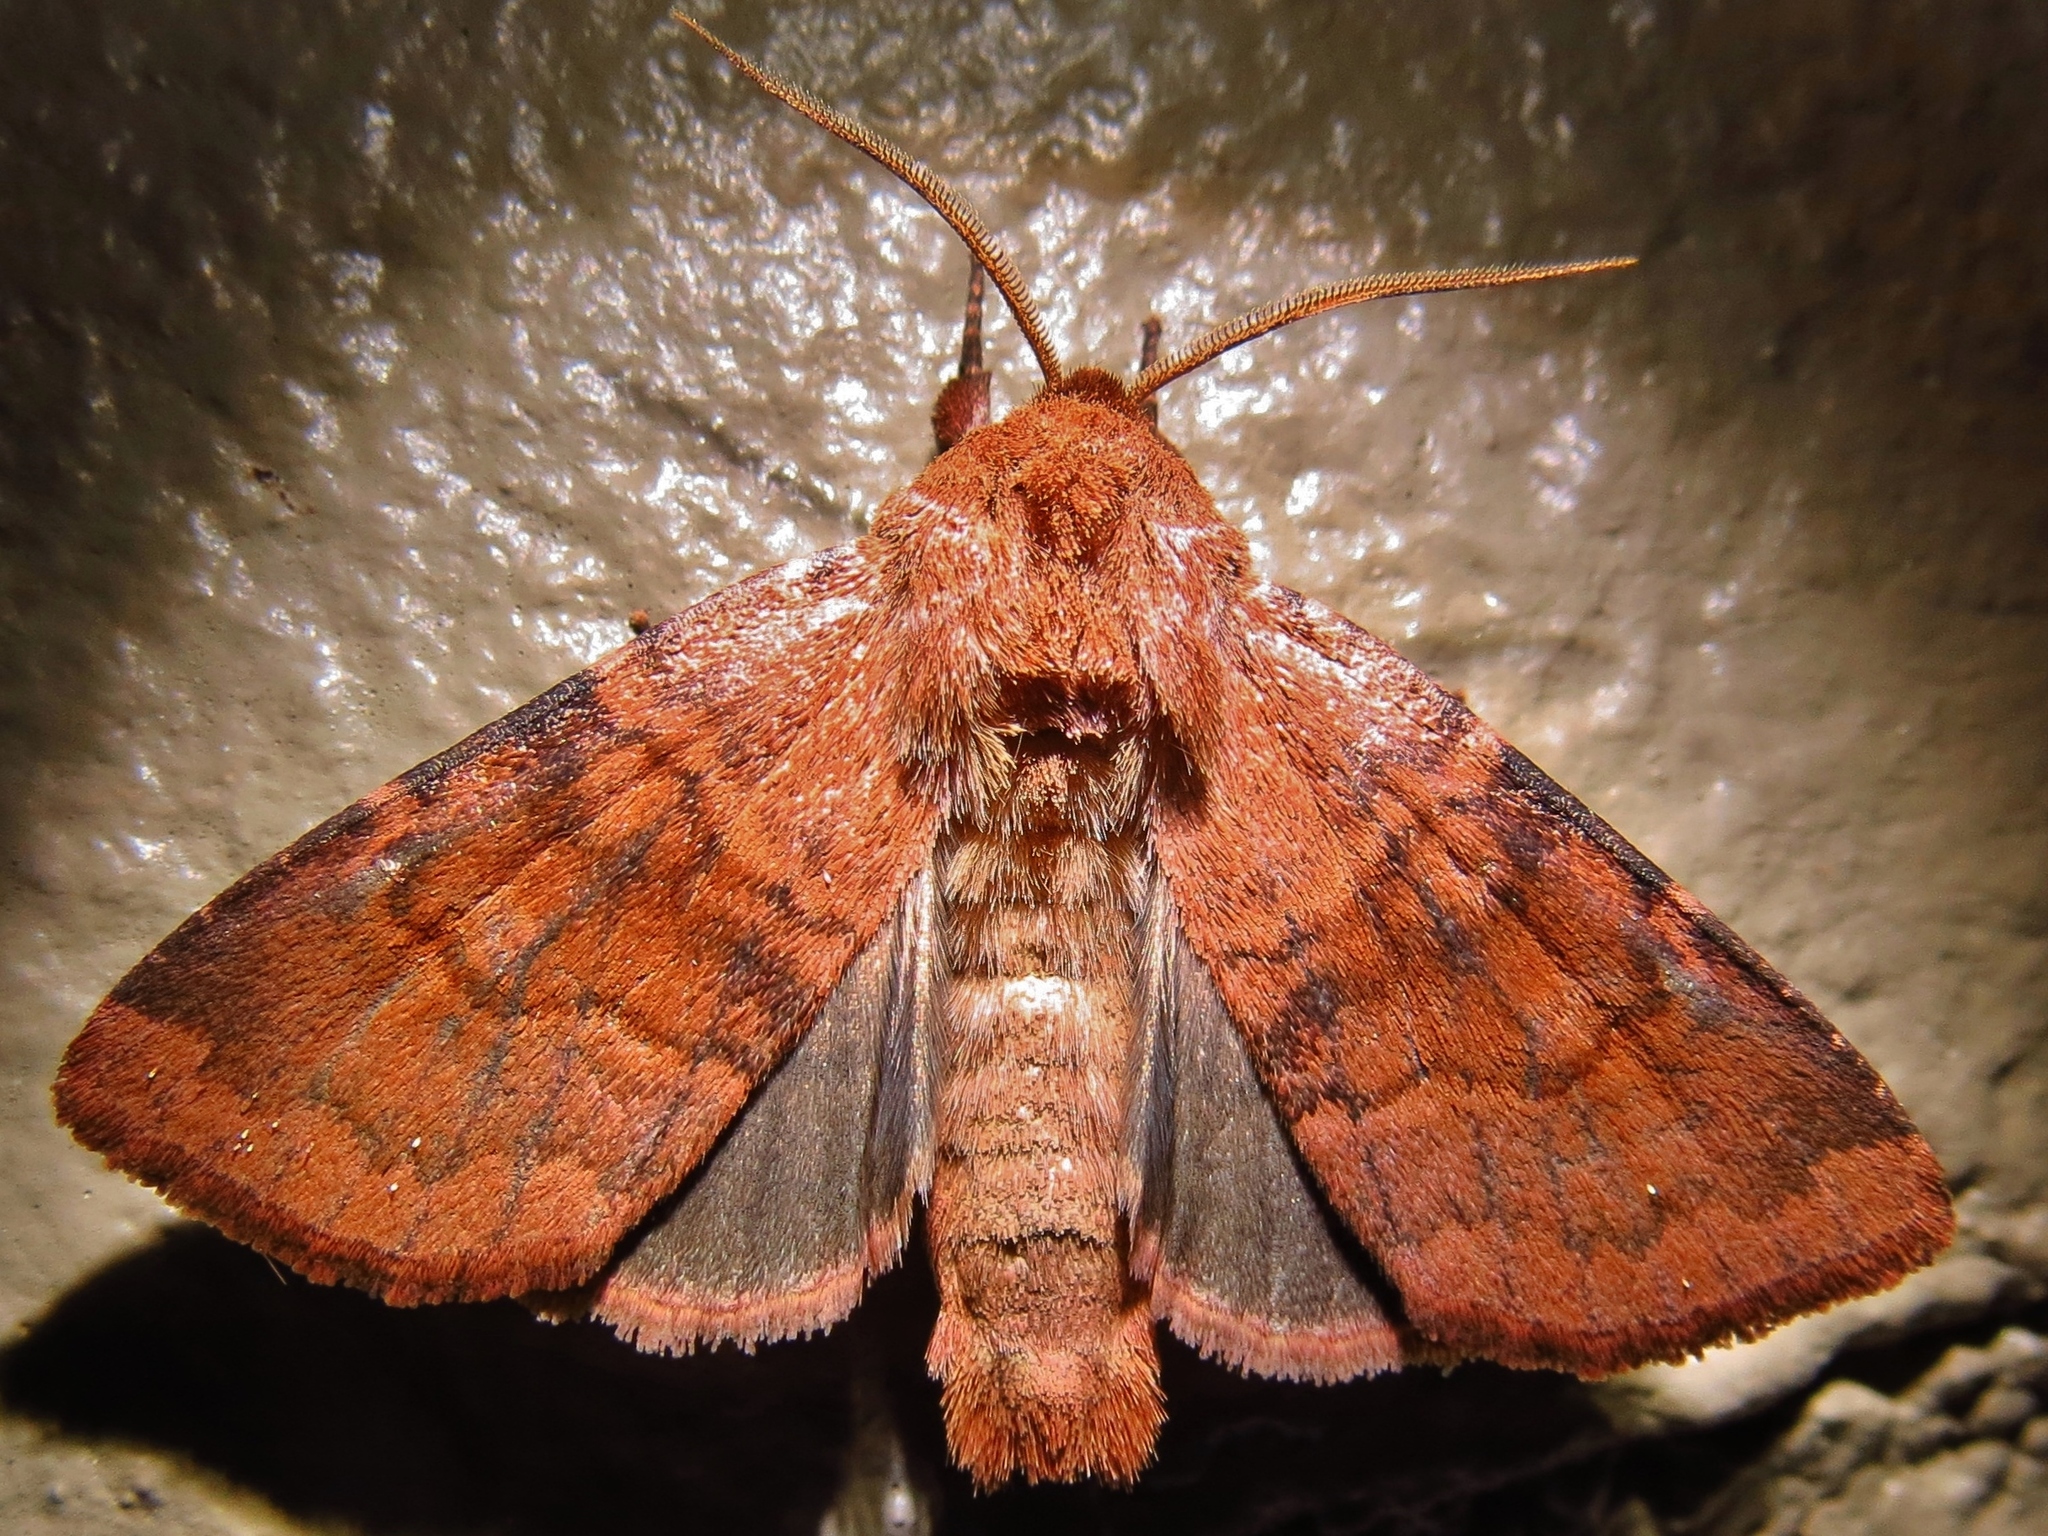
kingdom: Animalia
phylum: Arthropoda
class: Insecta
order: Lepidoptera
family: Noctuidae
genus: Nephelodes
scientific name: Nephelodes minians
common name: Bronzed cutworm
